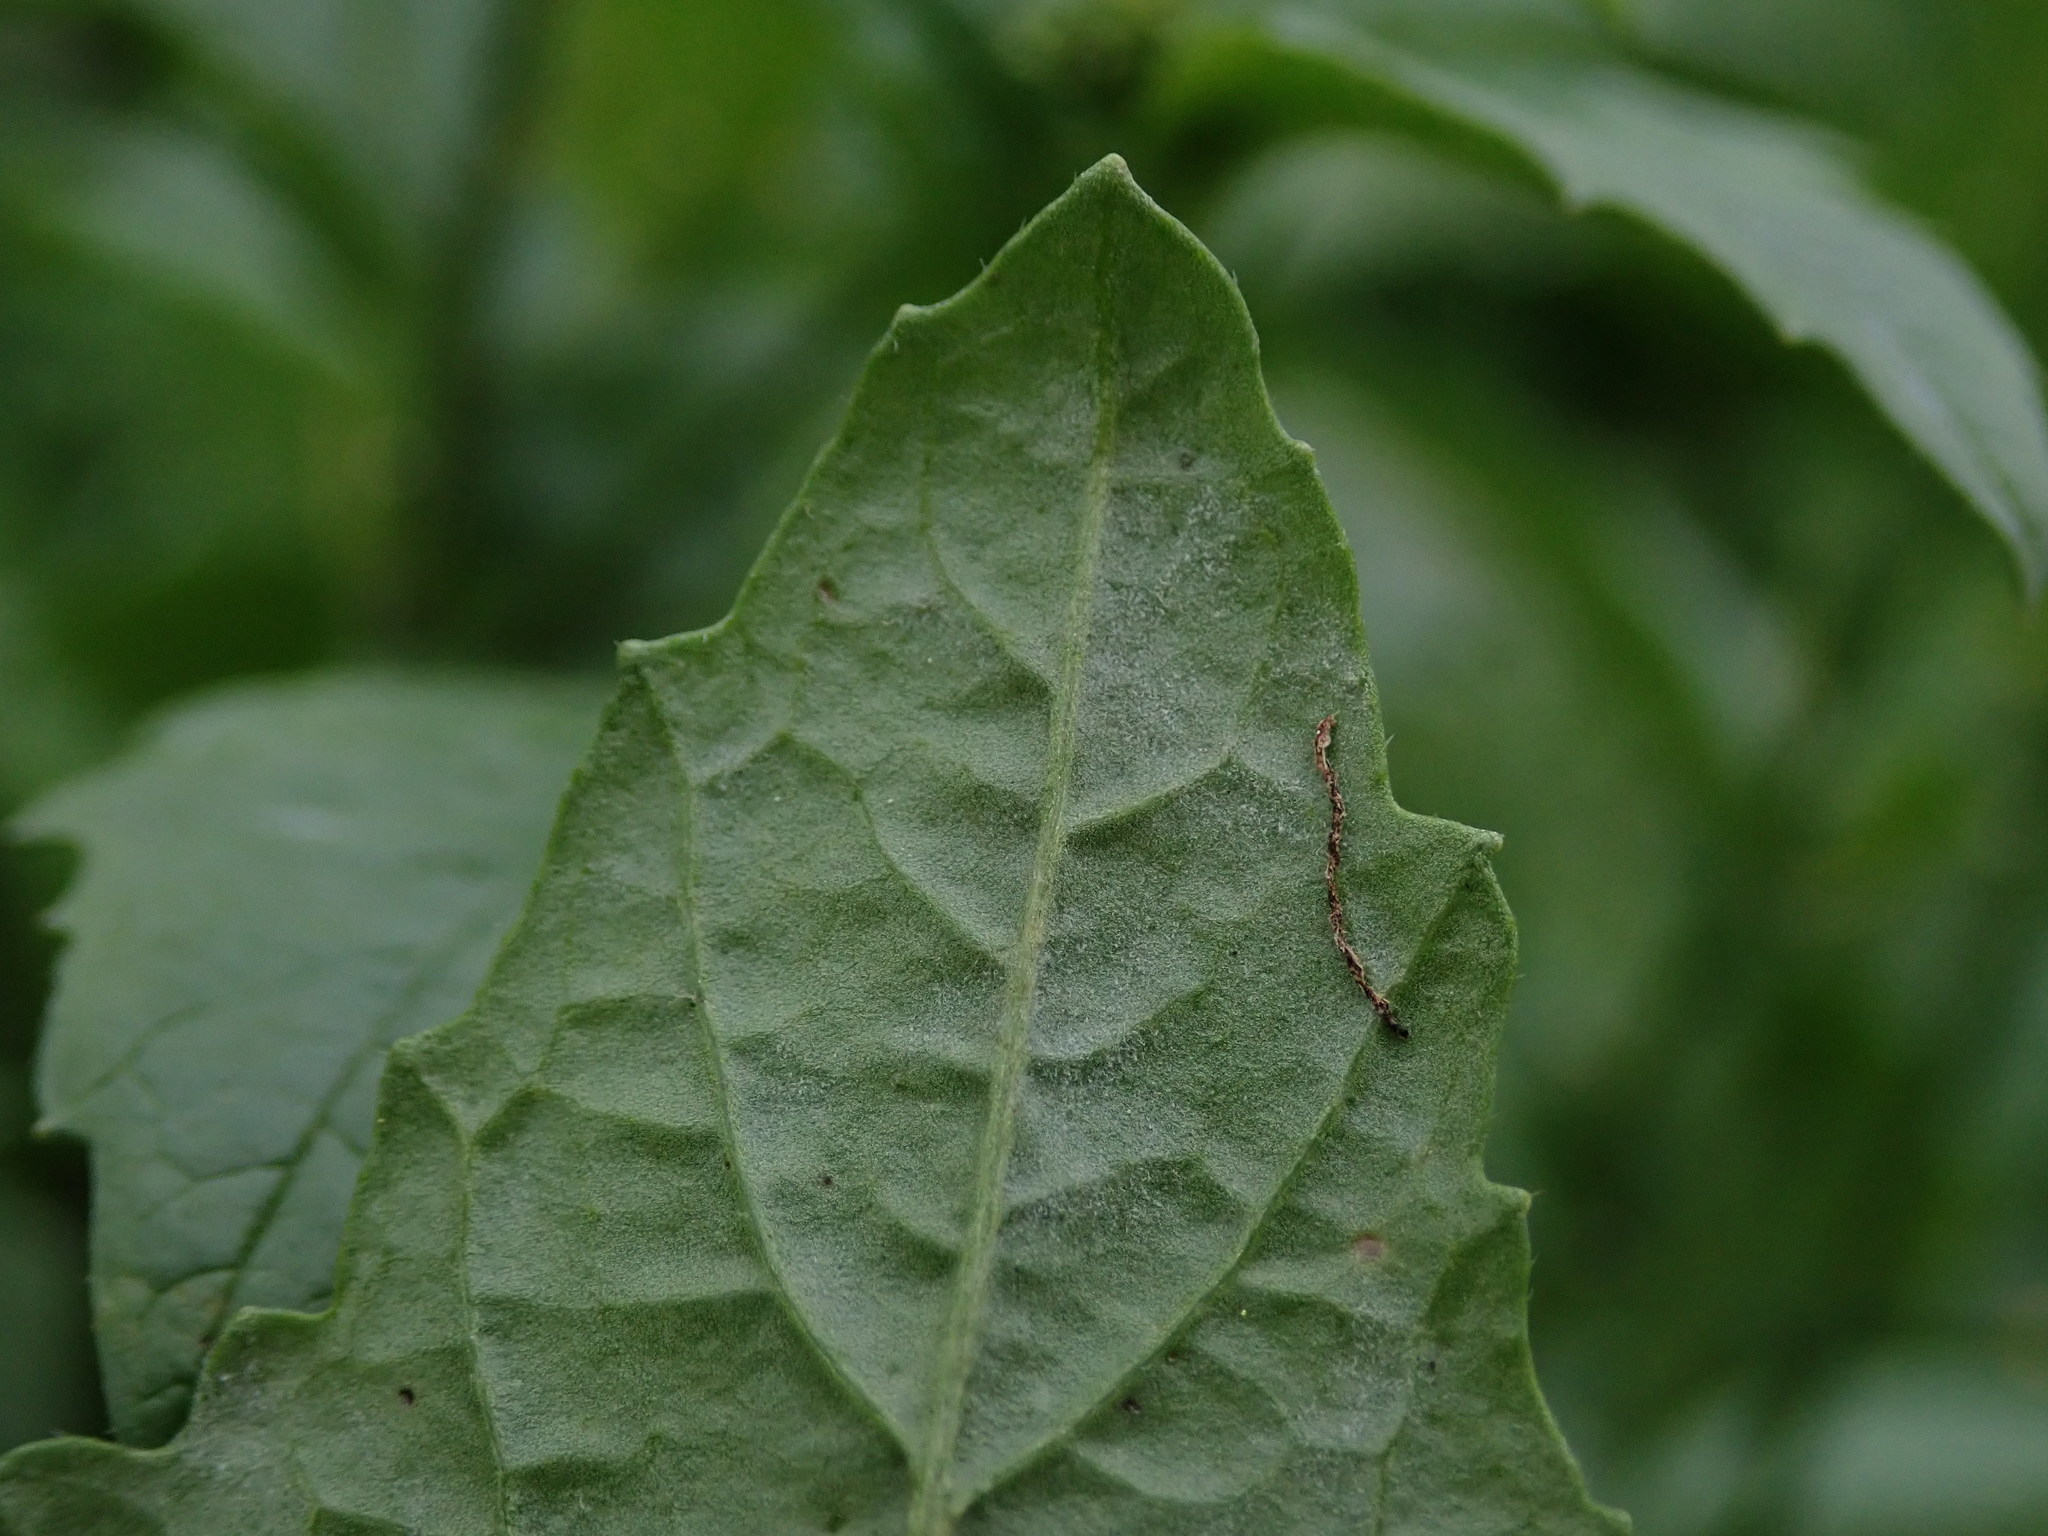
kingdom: Plantae
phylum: Tracheophyta
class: Magnoliopsida
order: Brassicales
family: Brassicaceae
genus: Sinapis
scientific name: Sinapis arvensis
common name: Charlock
